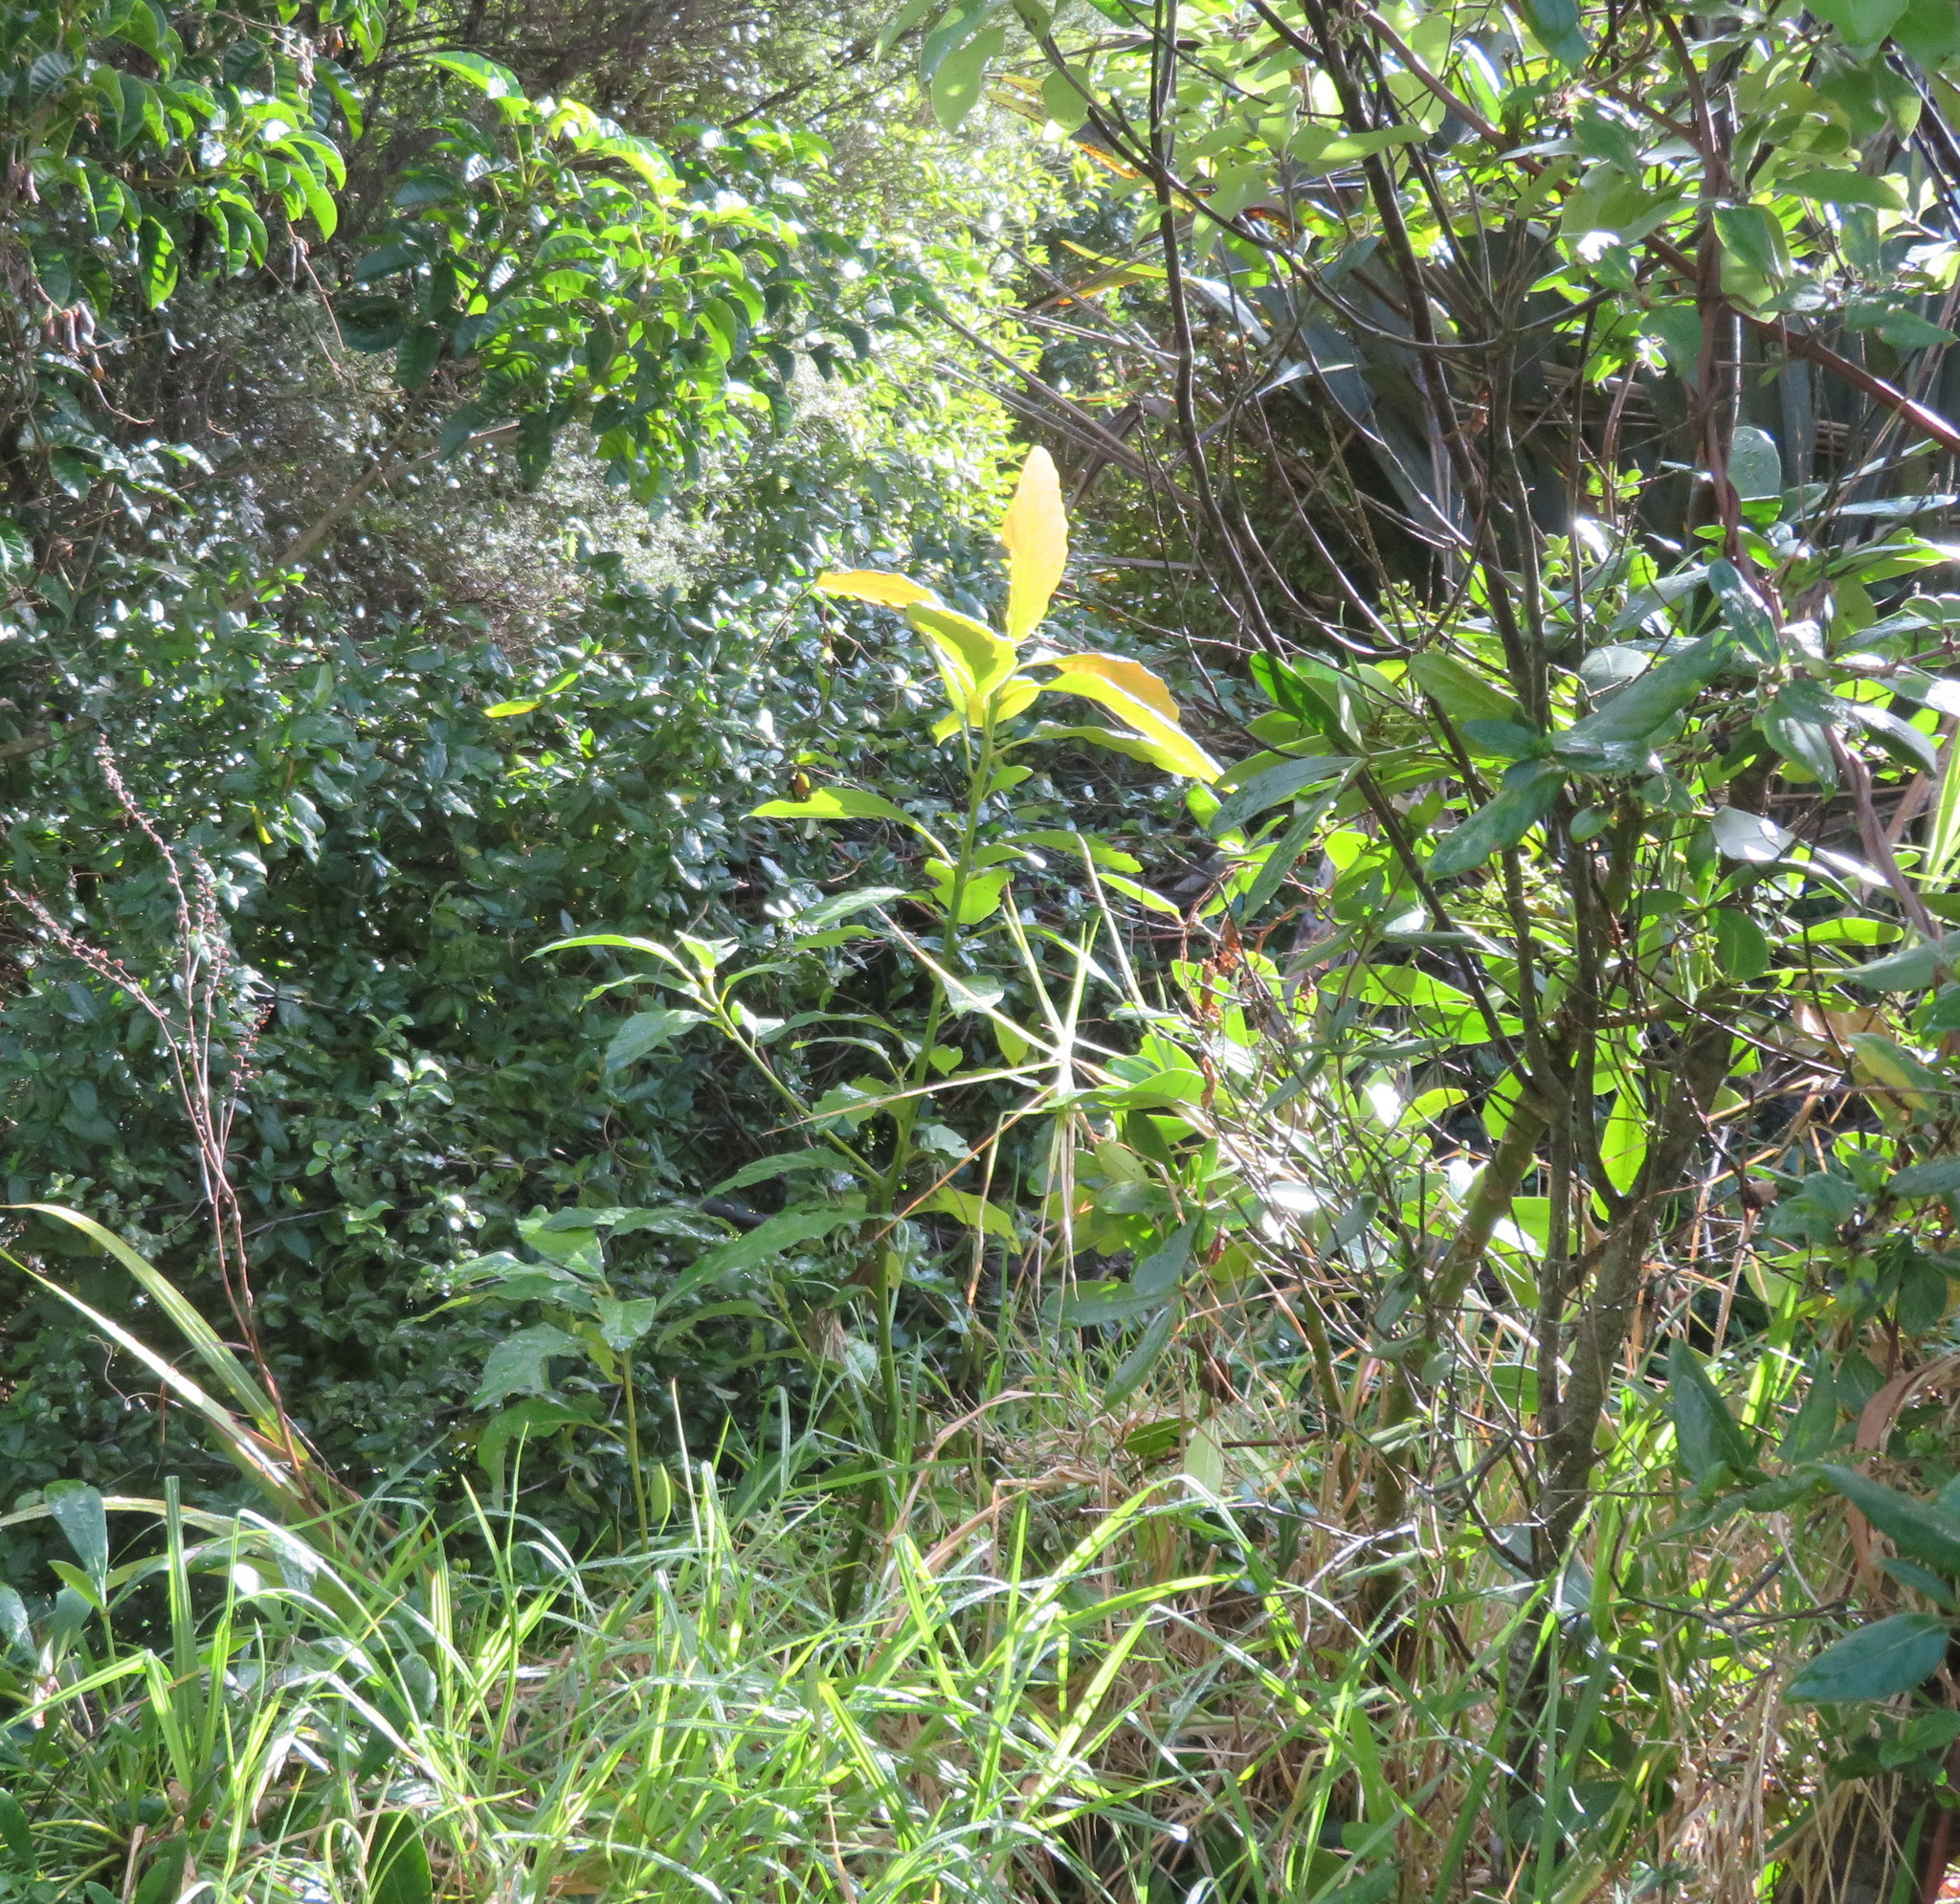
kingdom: Plantae
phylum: Tracheophyta
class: Magnoliopsida
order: Laurales
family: Lauraceae
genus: Persea
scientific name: Persea americana
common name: Avocado
